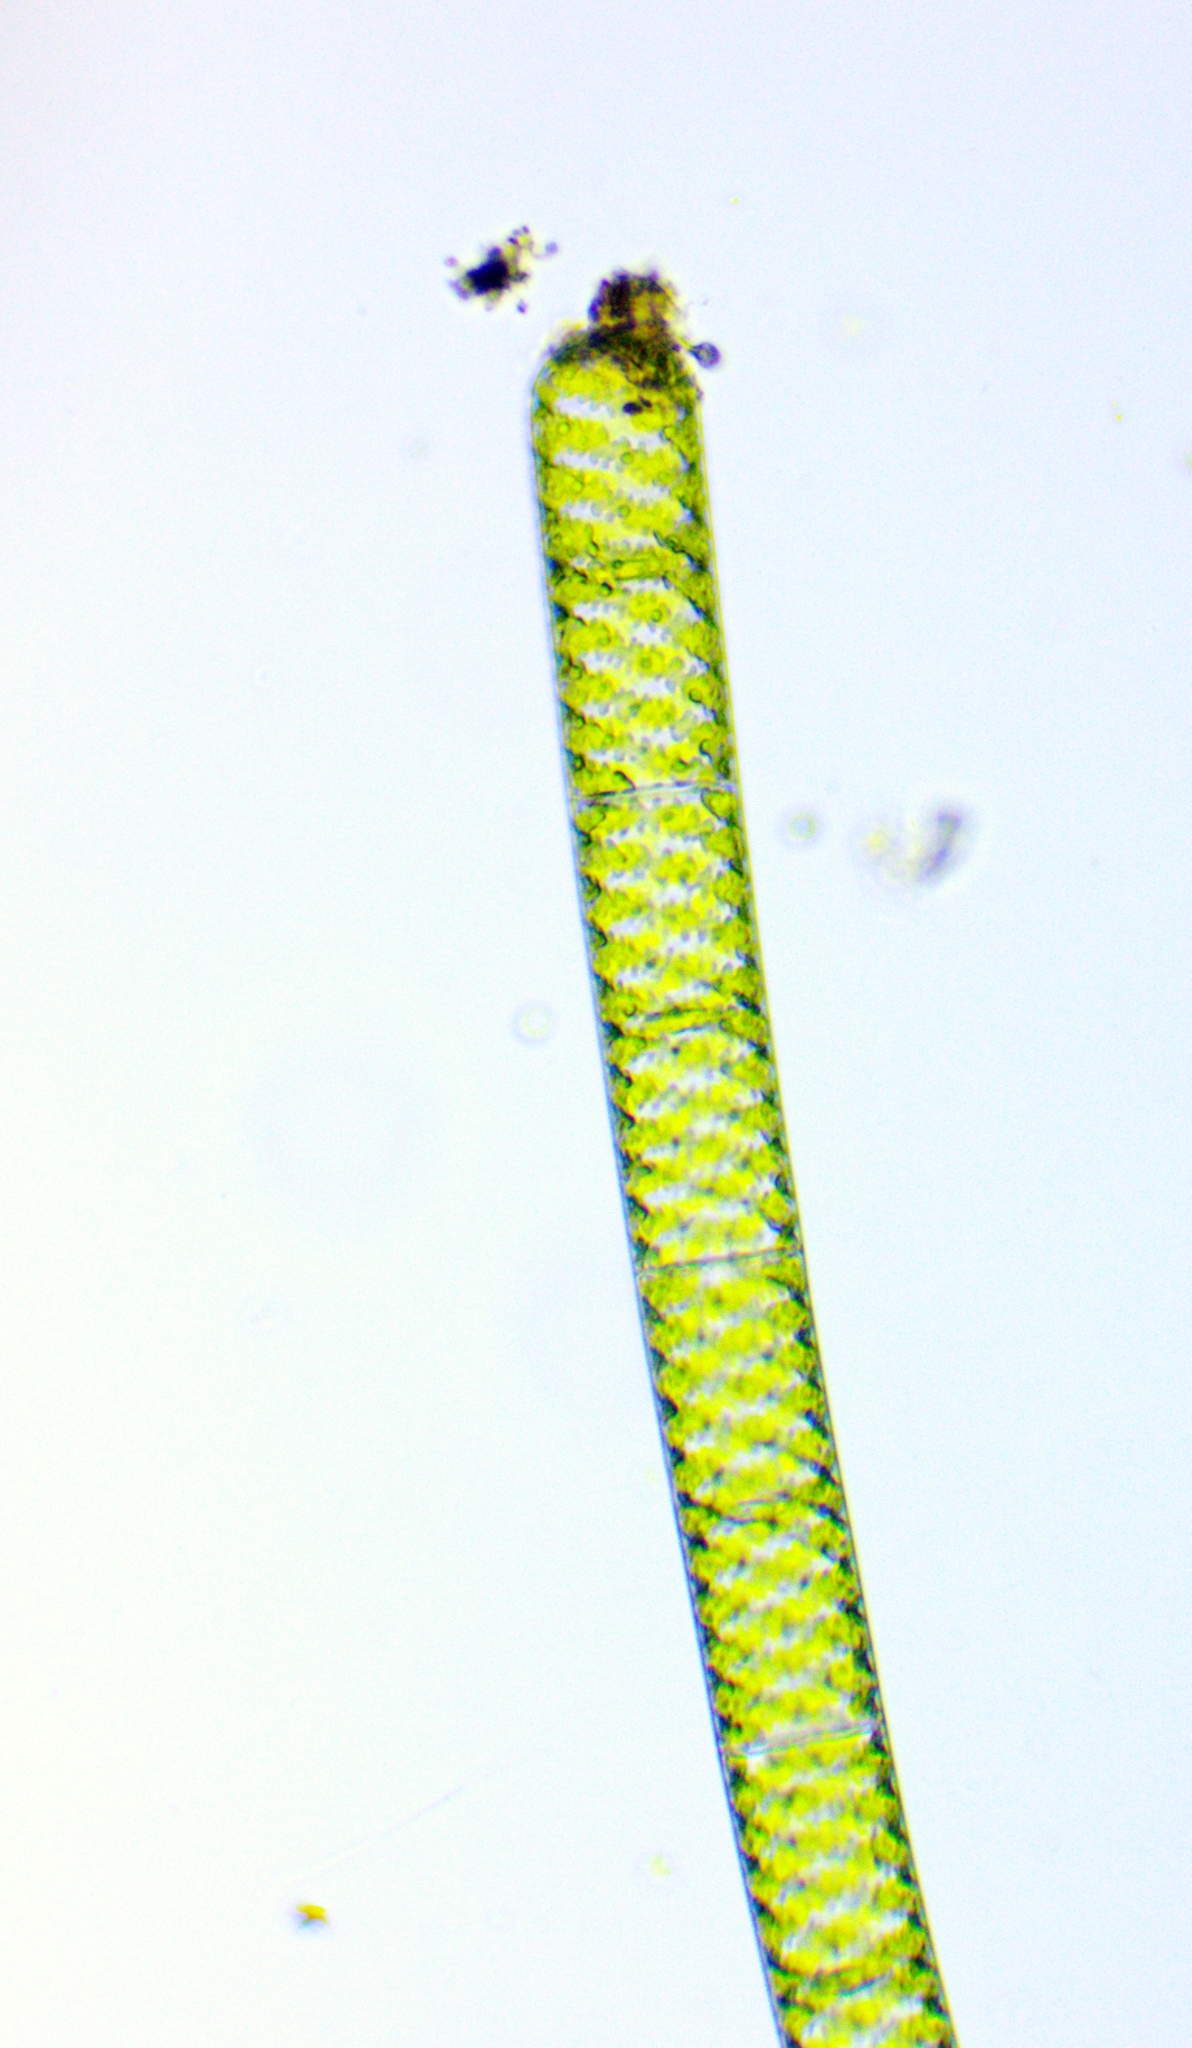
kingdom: Plantae
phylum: Charophyta
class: Zygnematophyceae
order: Zygnematales
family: Zygnemataceae
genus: Spirogyra
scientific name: Spirogyra
